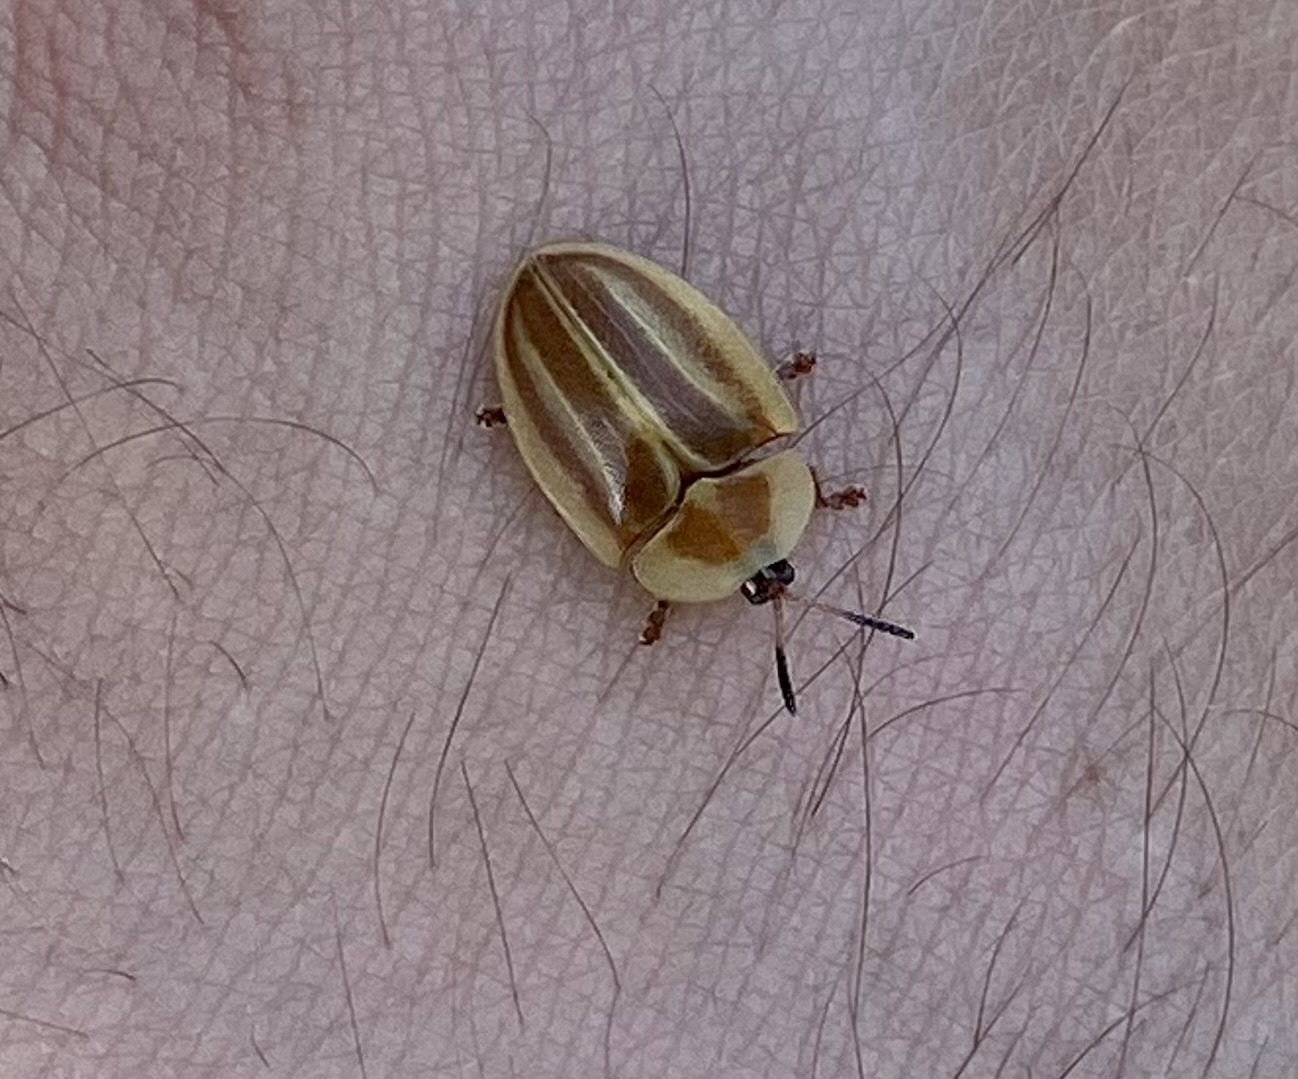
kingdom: Animalia
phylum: Arthropoda
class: Insecta
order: Coleoptera
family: Chrysomelidae
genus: Anacassis
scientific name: Anacassis fuscata
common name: Seepwillow flea beetle
